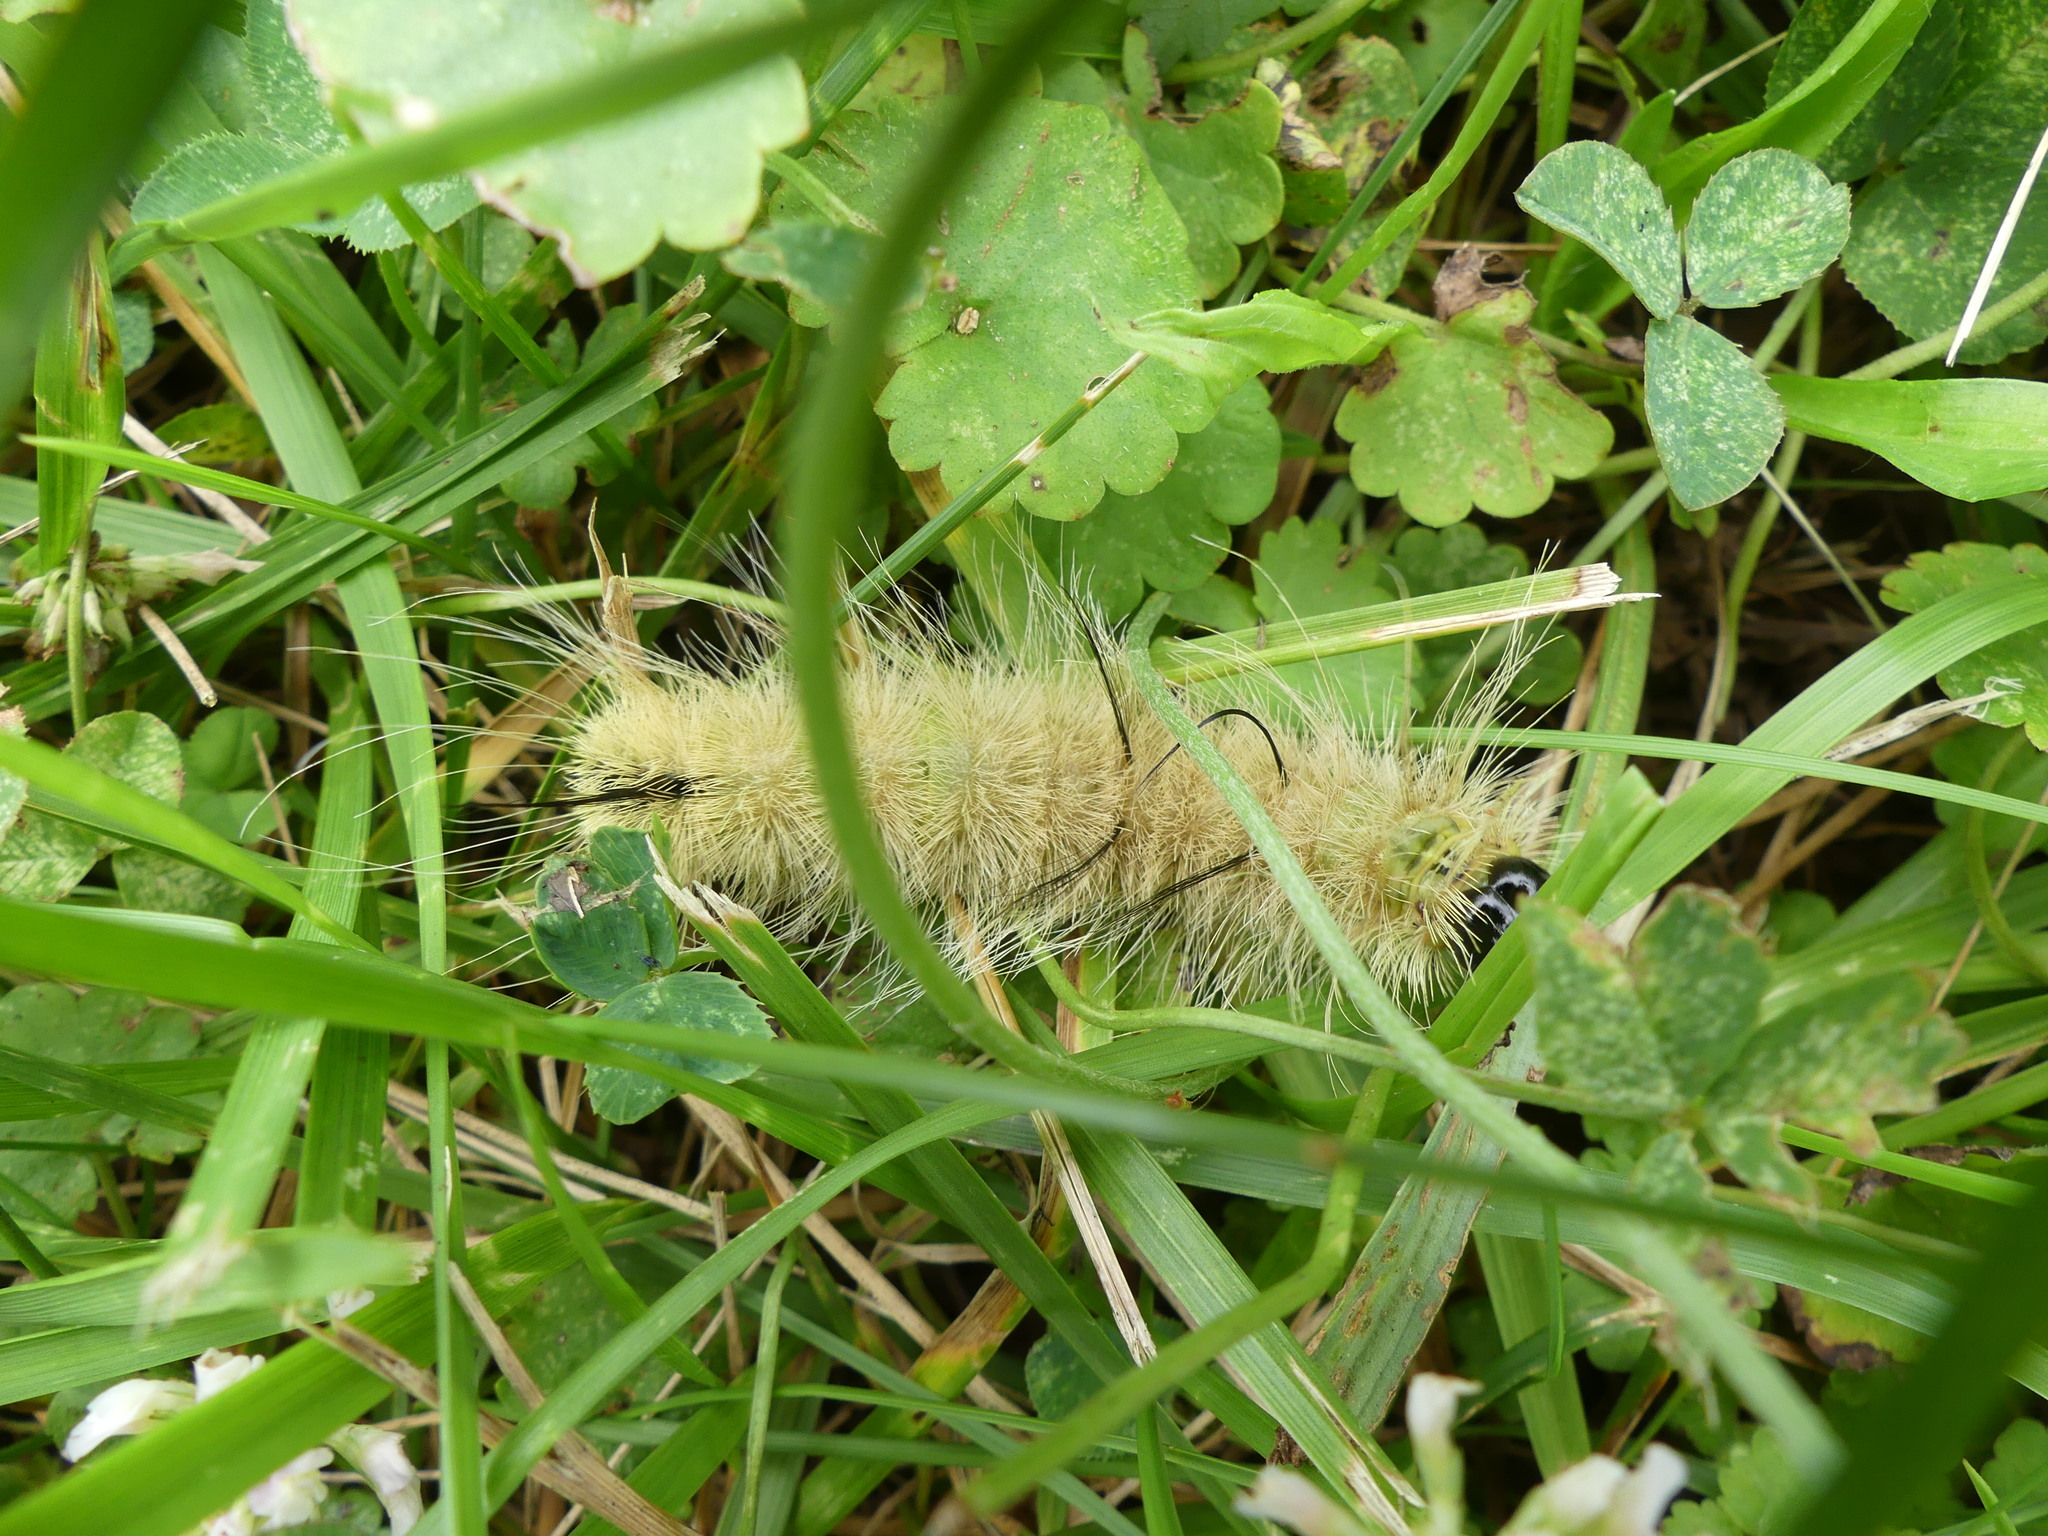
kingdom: Animalia
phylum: Arthropoda
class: Insecta
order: Lepidoptera
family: Noctuidae
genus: Acronicta
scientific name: Acronicta americana
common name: American dagger
